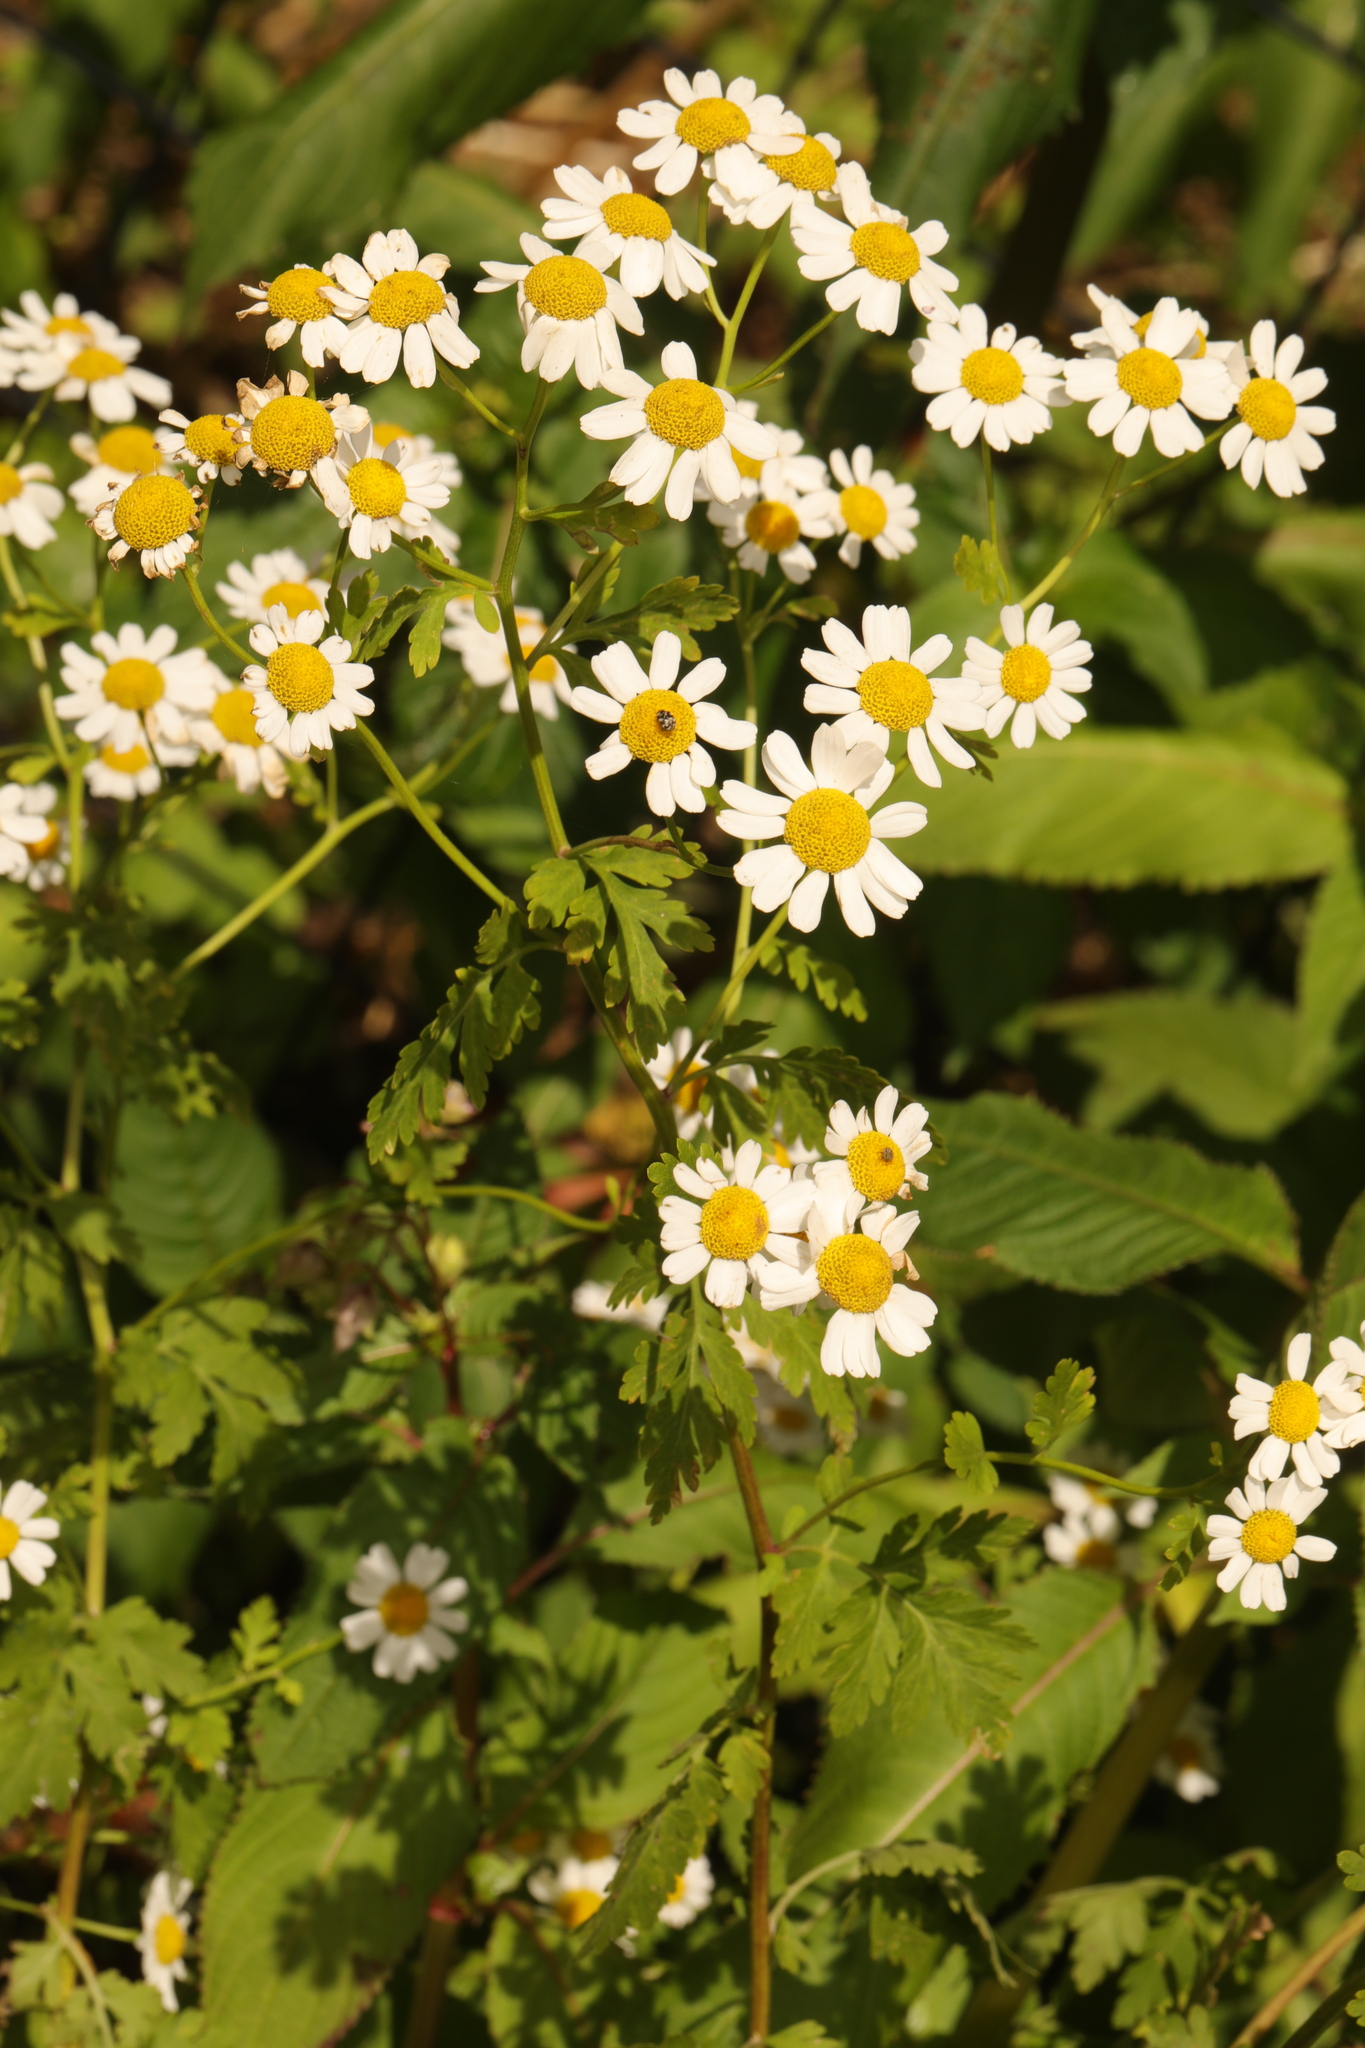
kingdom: Plantae
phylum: Tracheophyta
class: Magnoliopsida
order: Asterales
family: Asteraceae
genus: Tanacetum
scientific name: Tanacetum parthenium
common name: Feverfew
